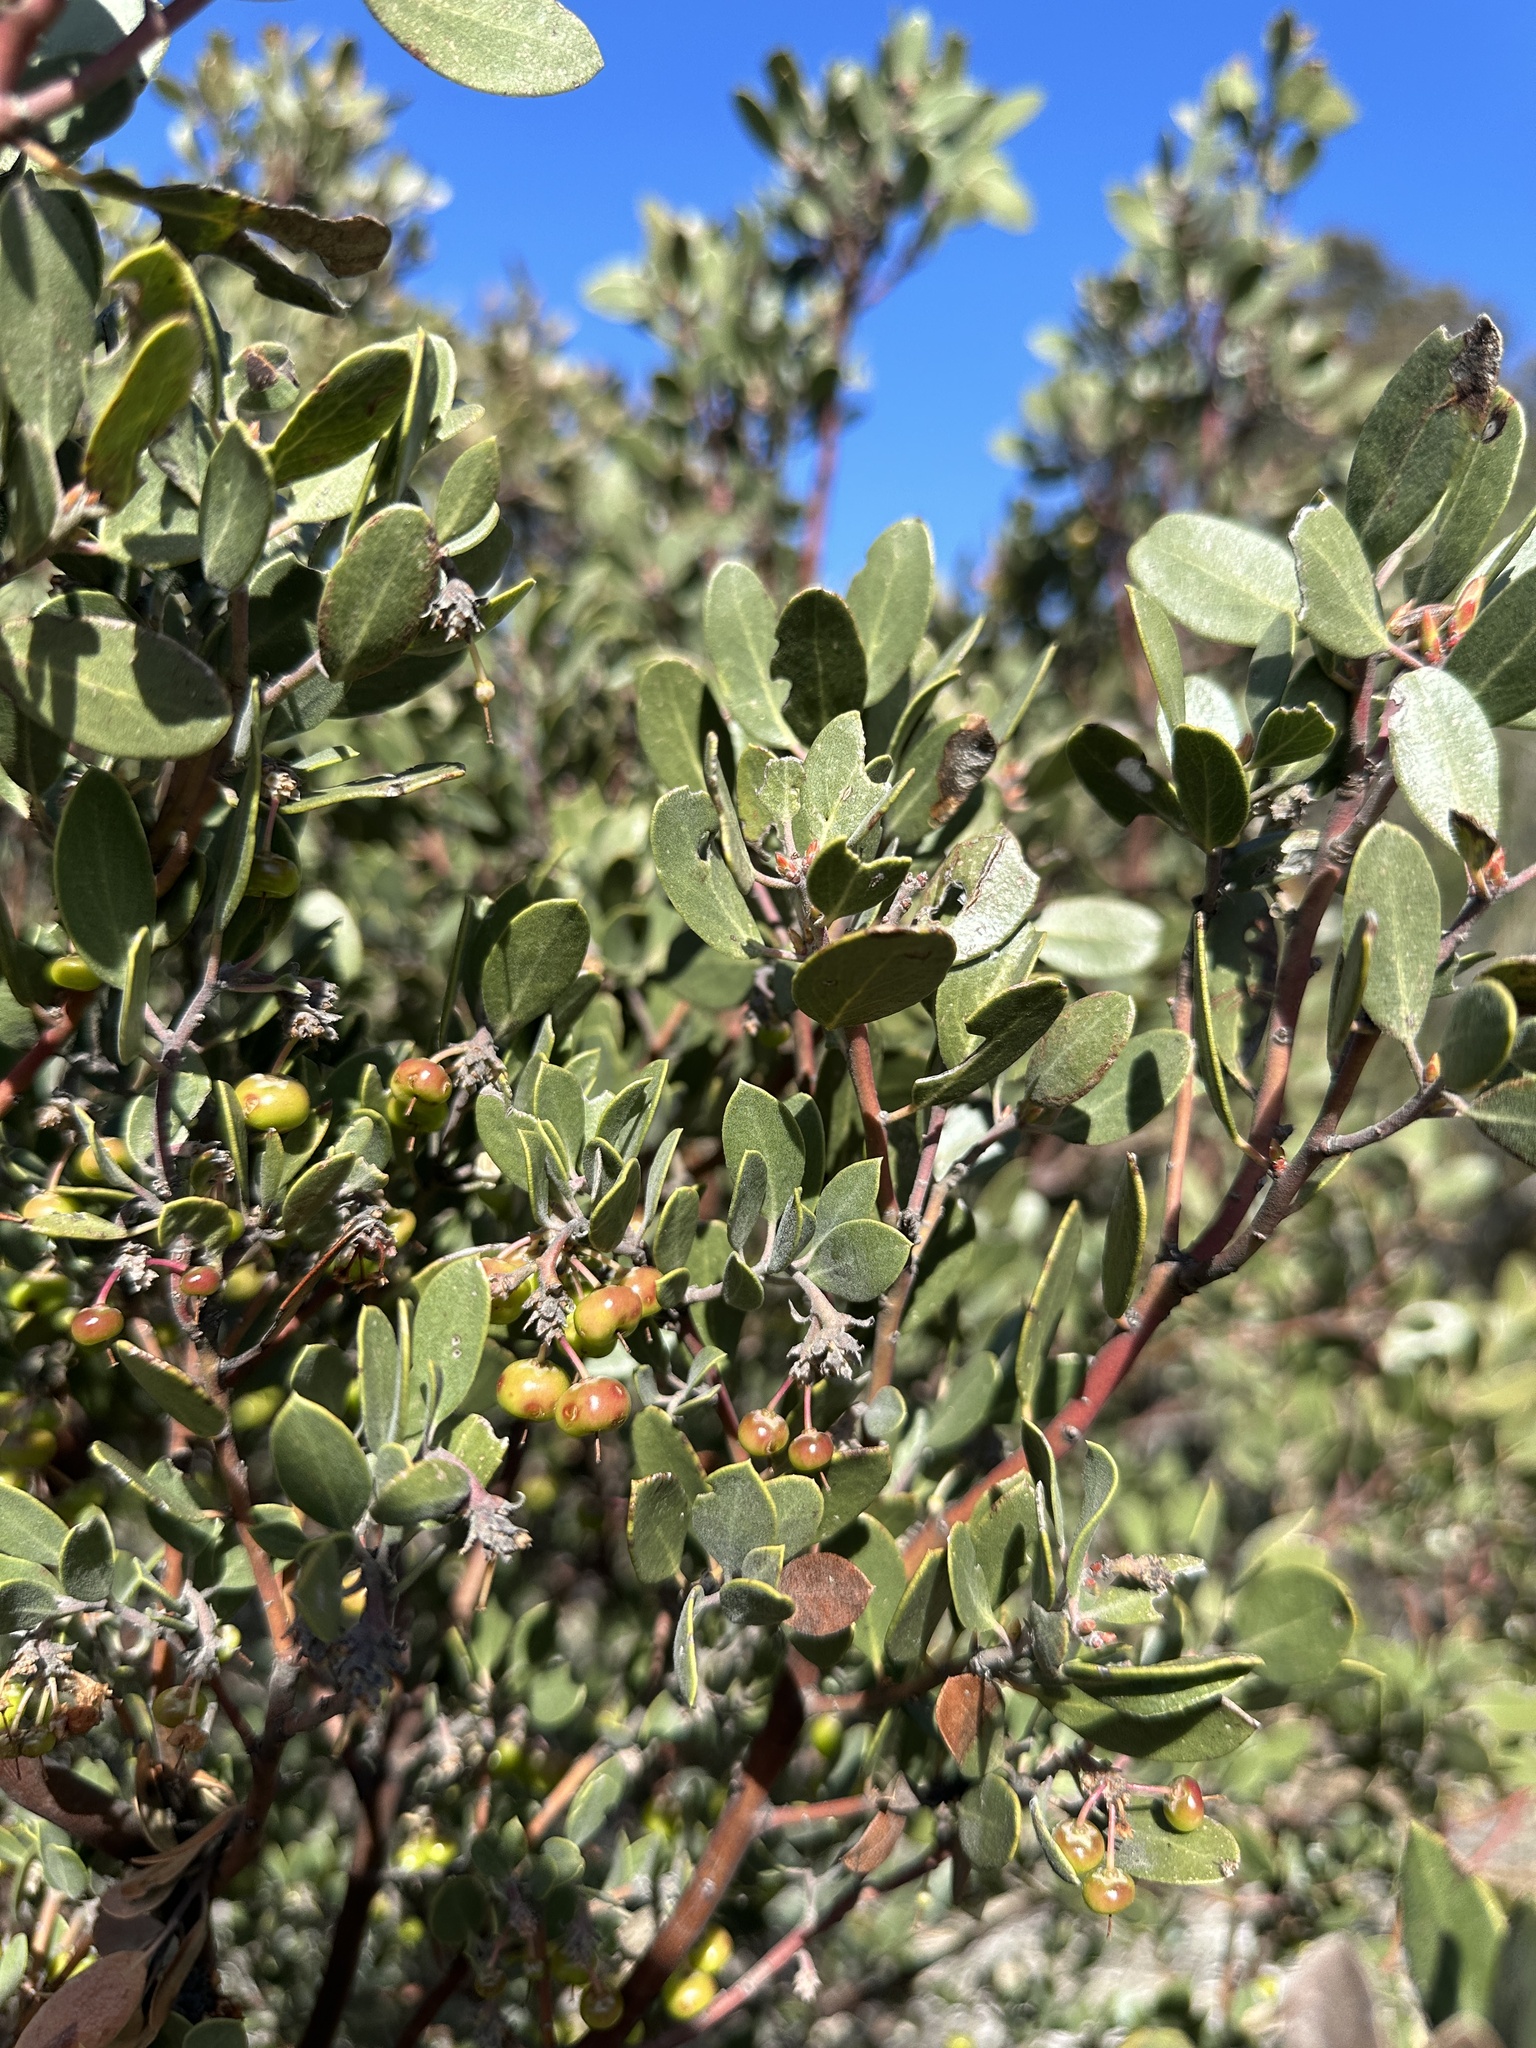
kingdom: Plantae
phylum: Tracheophyta
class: Magnoliopsida
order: Ericales
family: Ericaceae
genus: Arctostaphylos
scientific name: Arctostaphylos pungens
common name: Mexican manzanita
